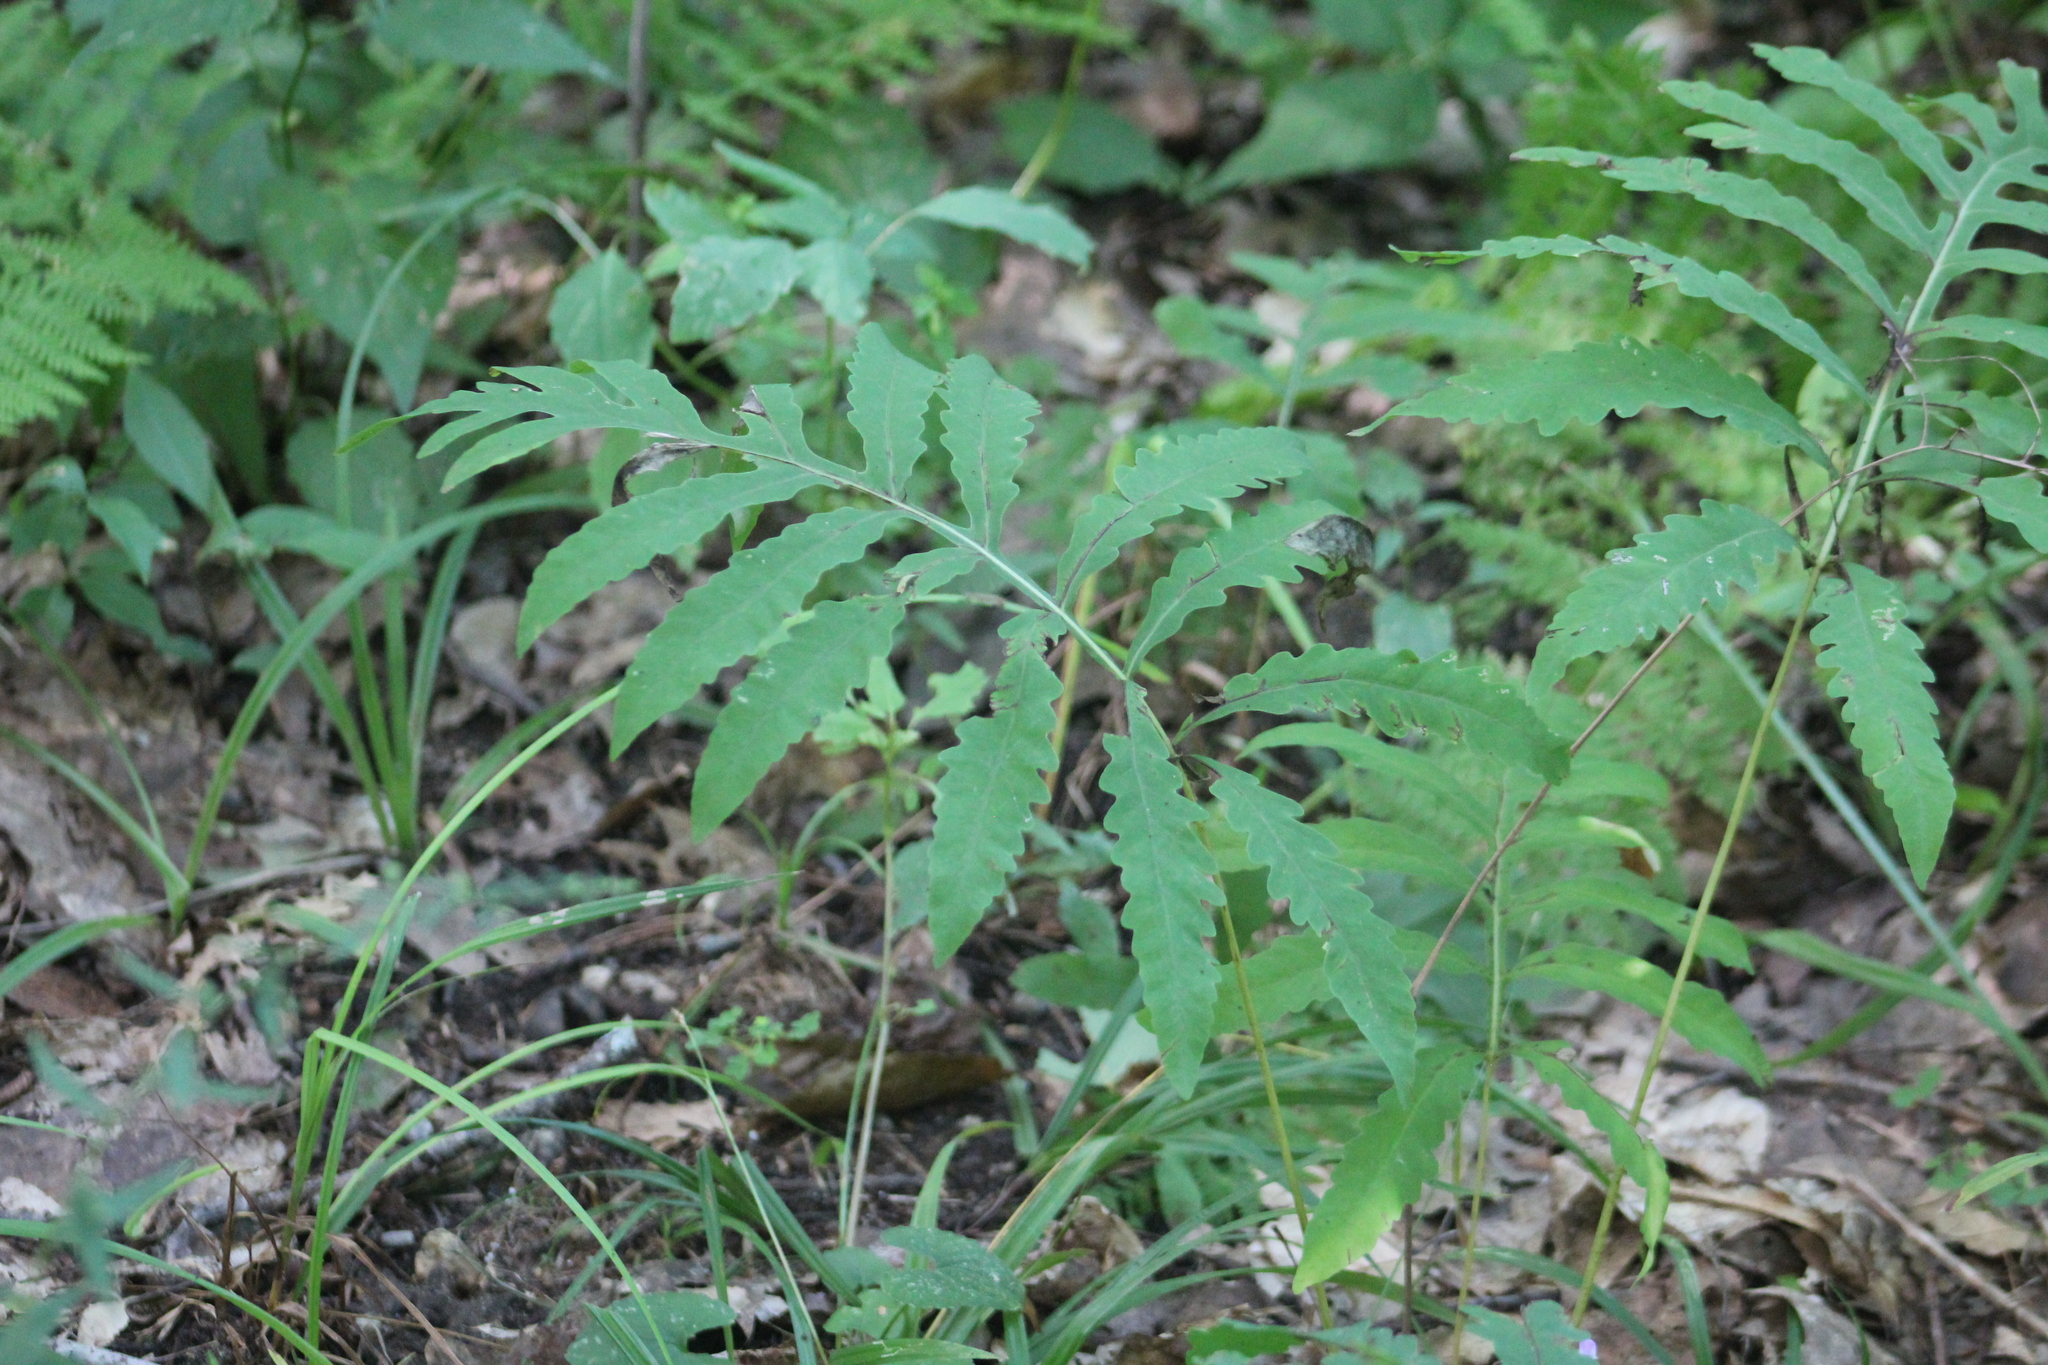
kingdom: Plantae
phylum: Tracheophyta
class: Polypodiopsida
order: Polypodiales
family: Onocleaceae
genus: Onoclea
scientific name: Onoclea sensibilis
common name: Sensitive fern
